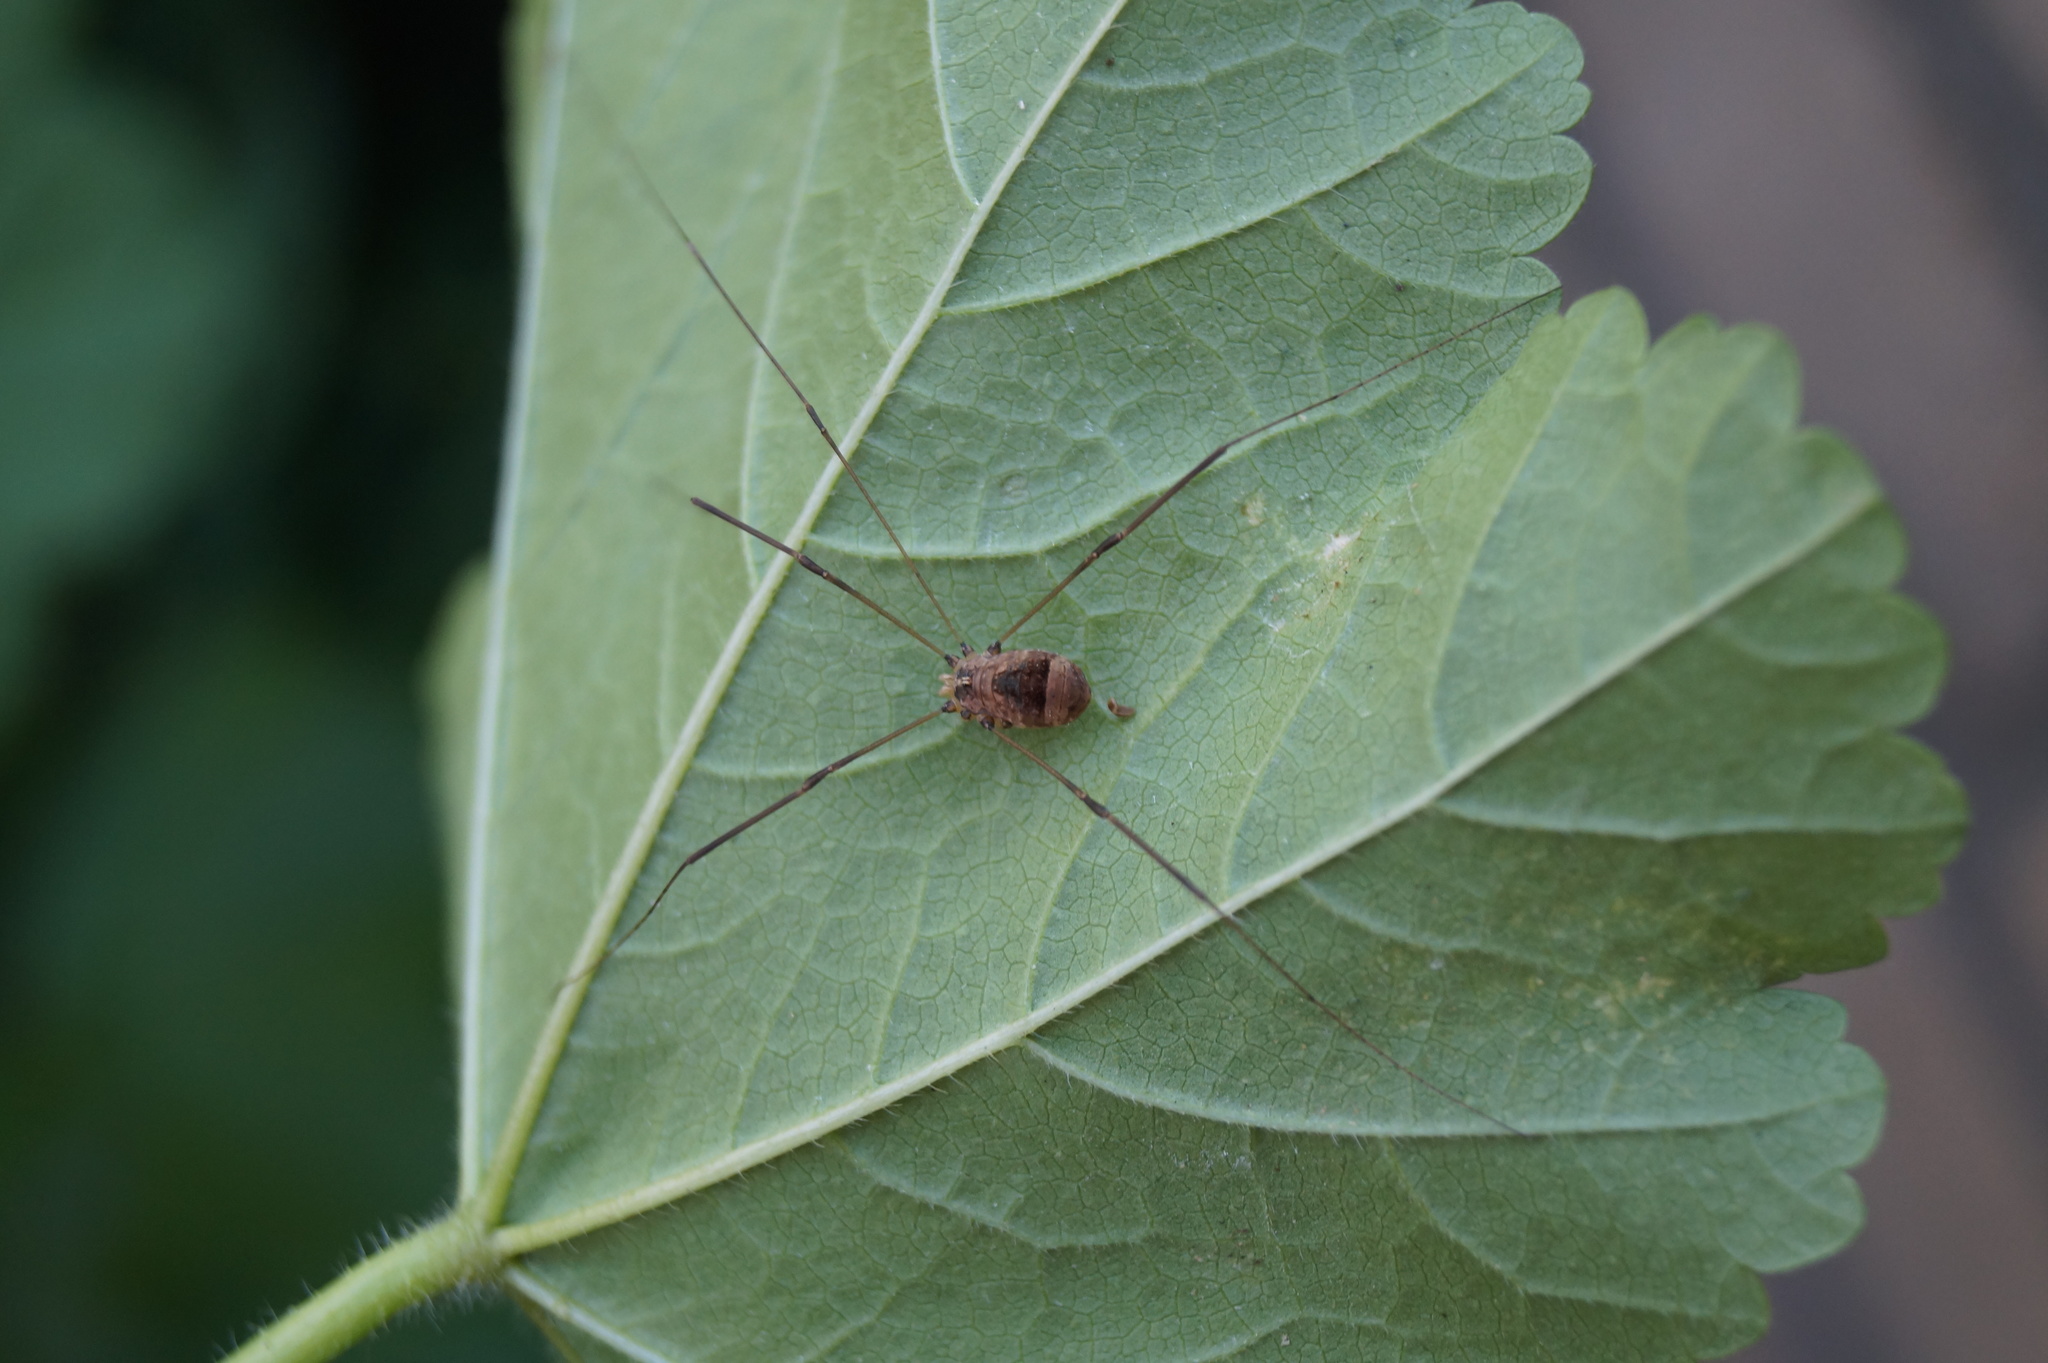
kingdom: Animalia
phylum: Arthropoda
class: Arachnida
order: Opiliones
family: Sclerosomatidae
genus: Leiobunum
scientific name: Leiobunum blackwalli
